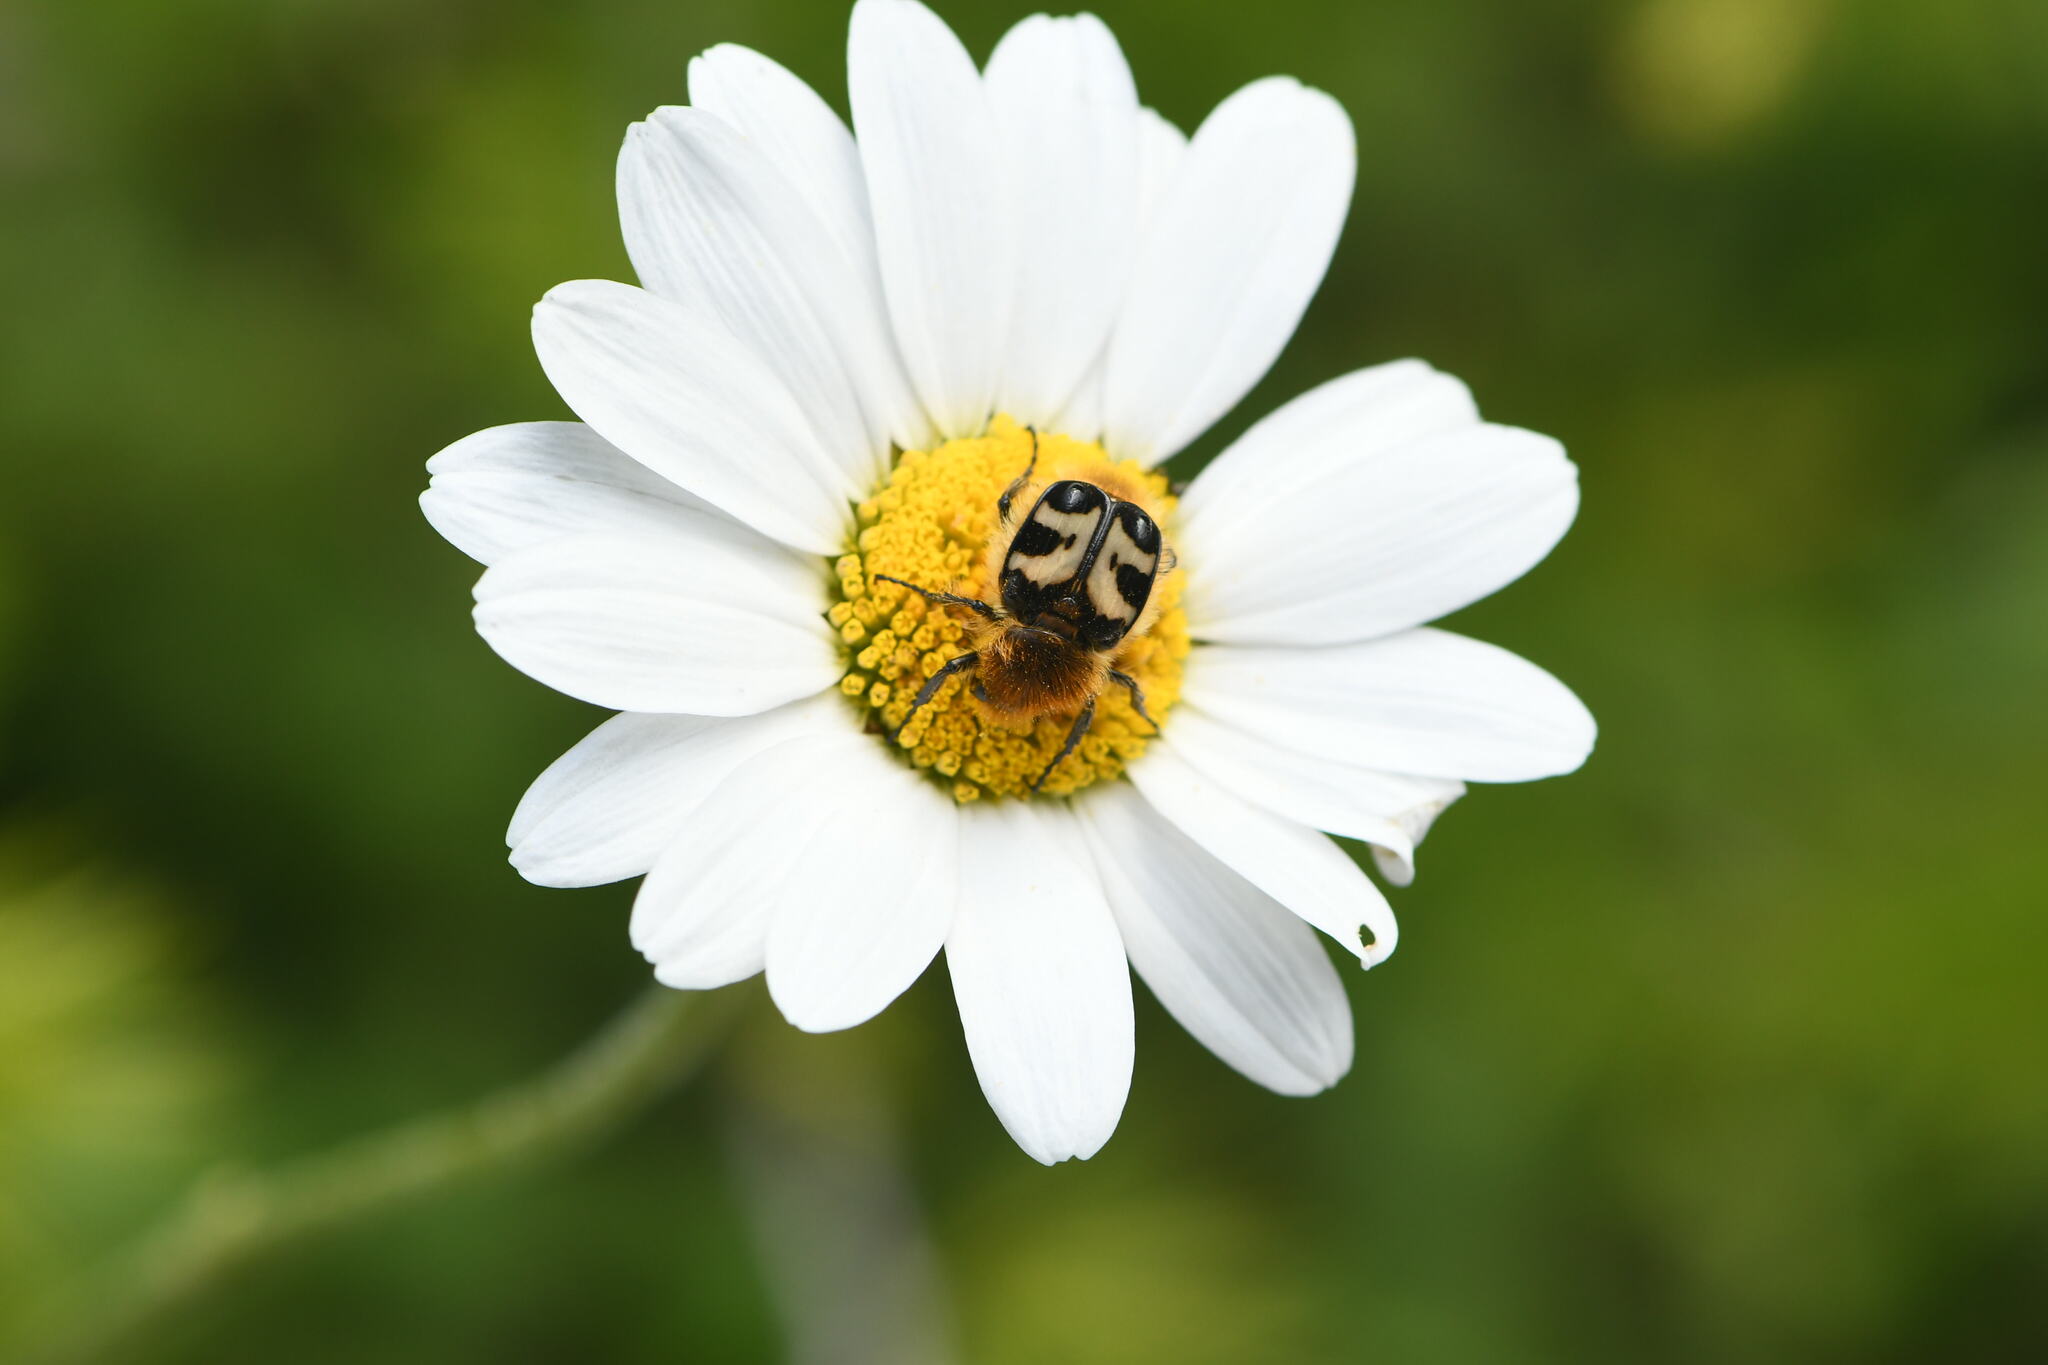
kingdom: Animalia
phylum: Arthropoda
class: Insecta
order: Coleoptera
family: Scarabaeidae
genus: Trichius
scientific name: Trichius fasciatus
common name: Bee beetle
